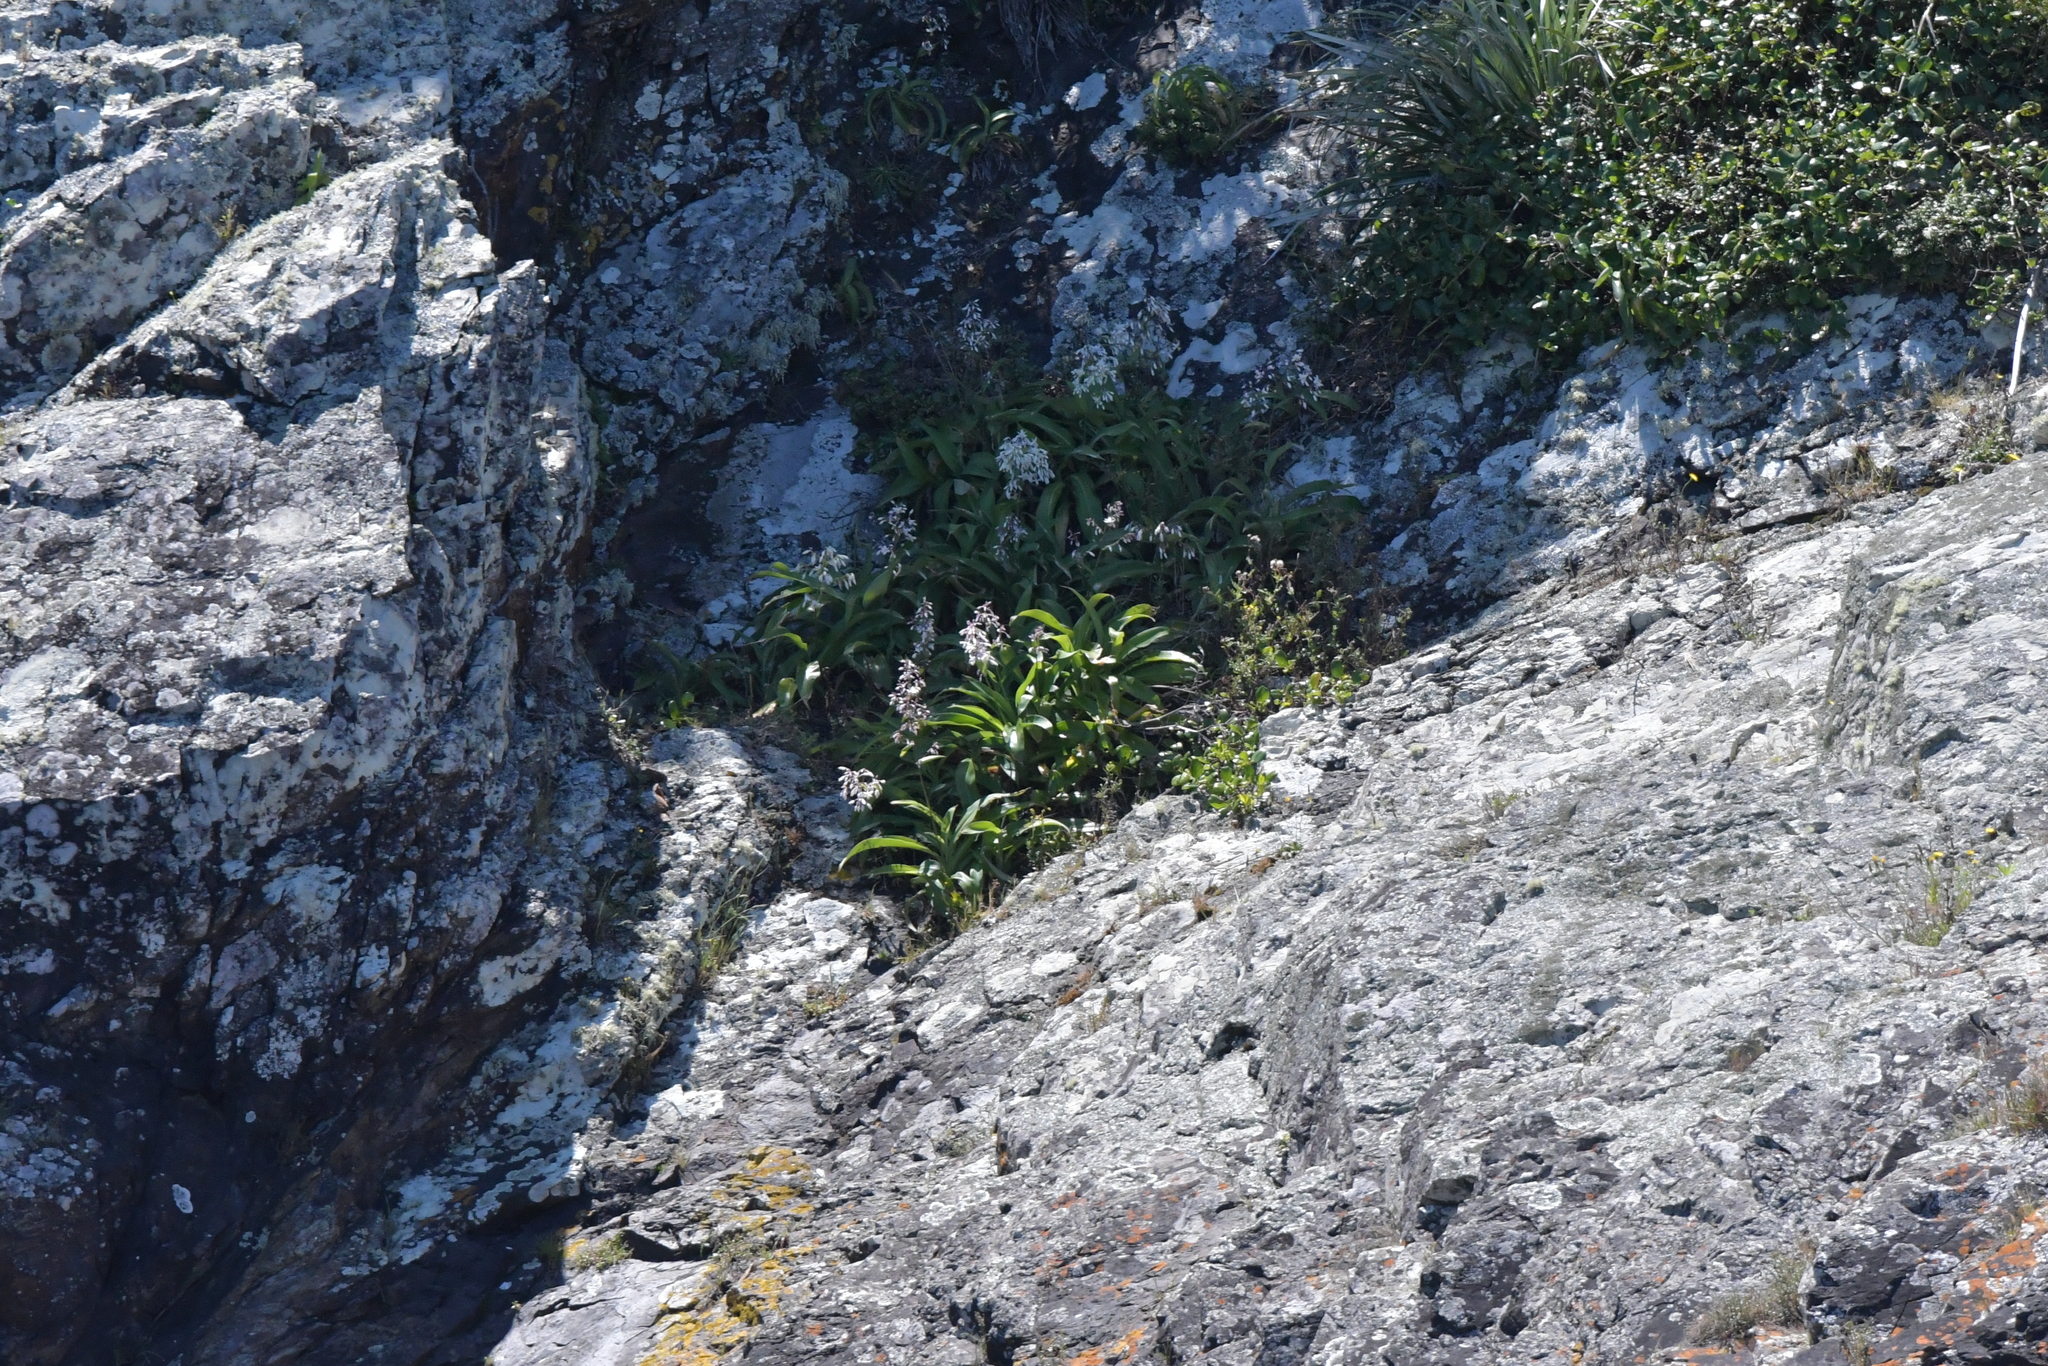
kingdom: Plantae
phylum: Tracheophyta
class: Liliopsida
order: Asparagales
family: Asparagaceae
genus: Arthropodium
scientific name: Arthropodium cirratum
